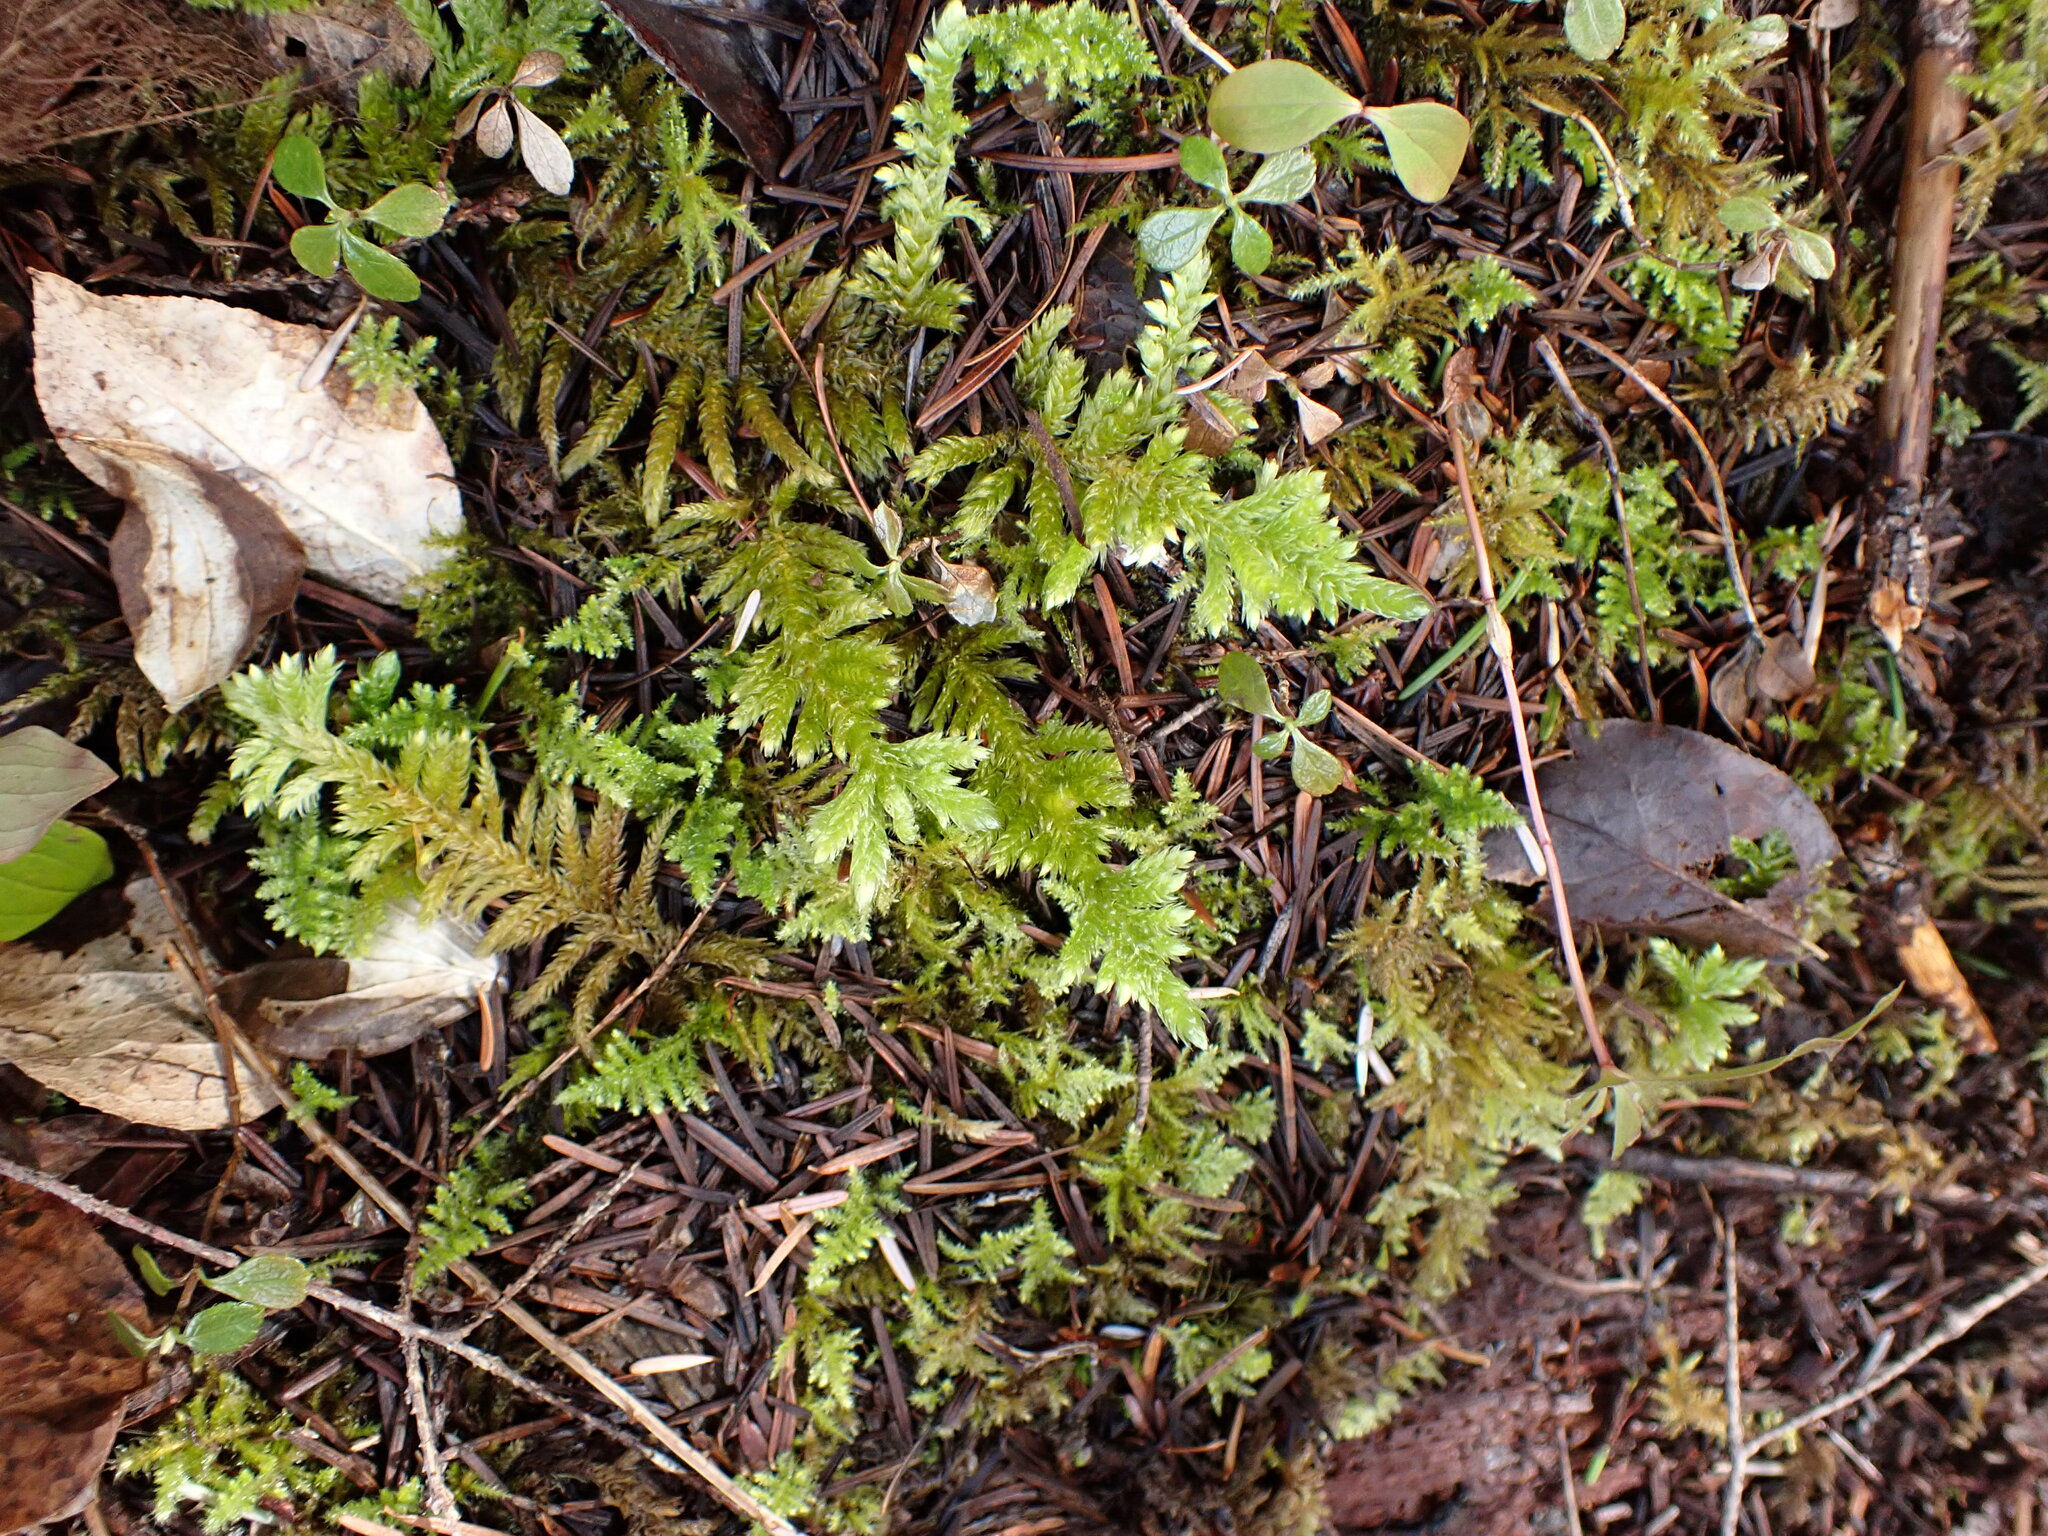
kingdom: Plantae
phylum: Bryophyta
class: Bryopsida
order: Hypnales
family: Brachytheciaceae
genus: Homalothecium
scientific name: Homalothecium megaptilum
